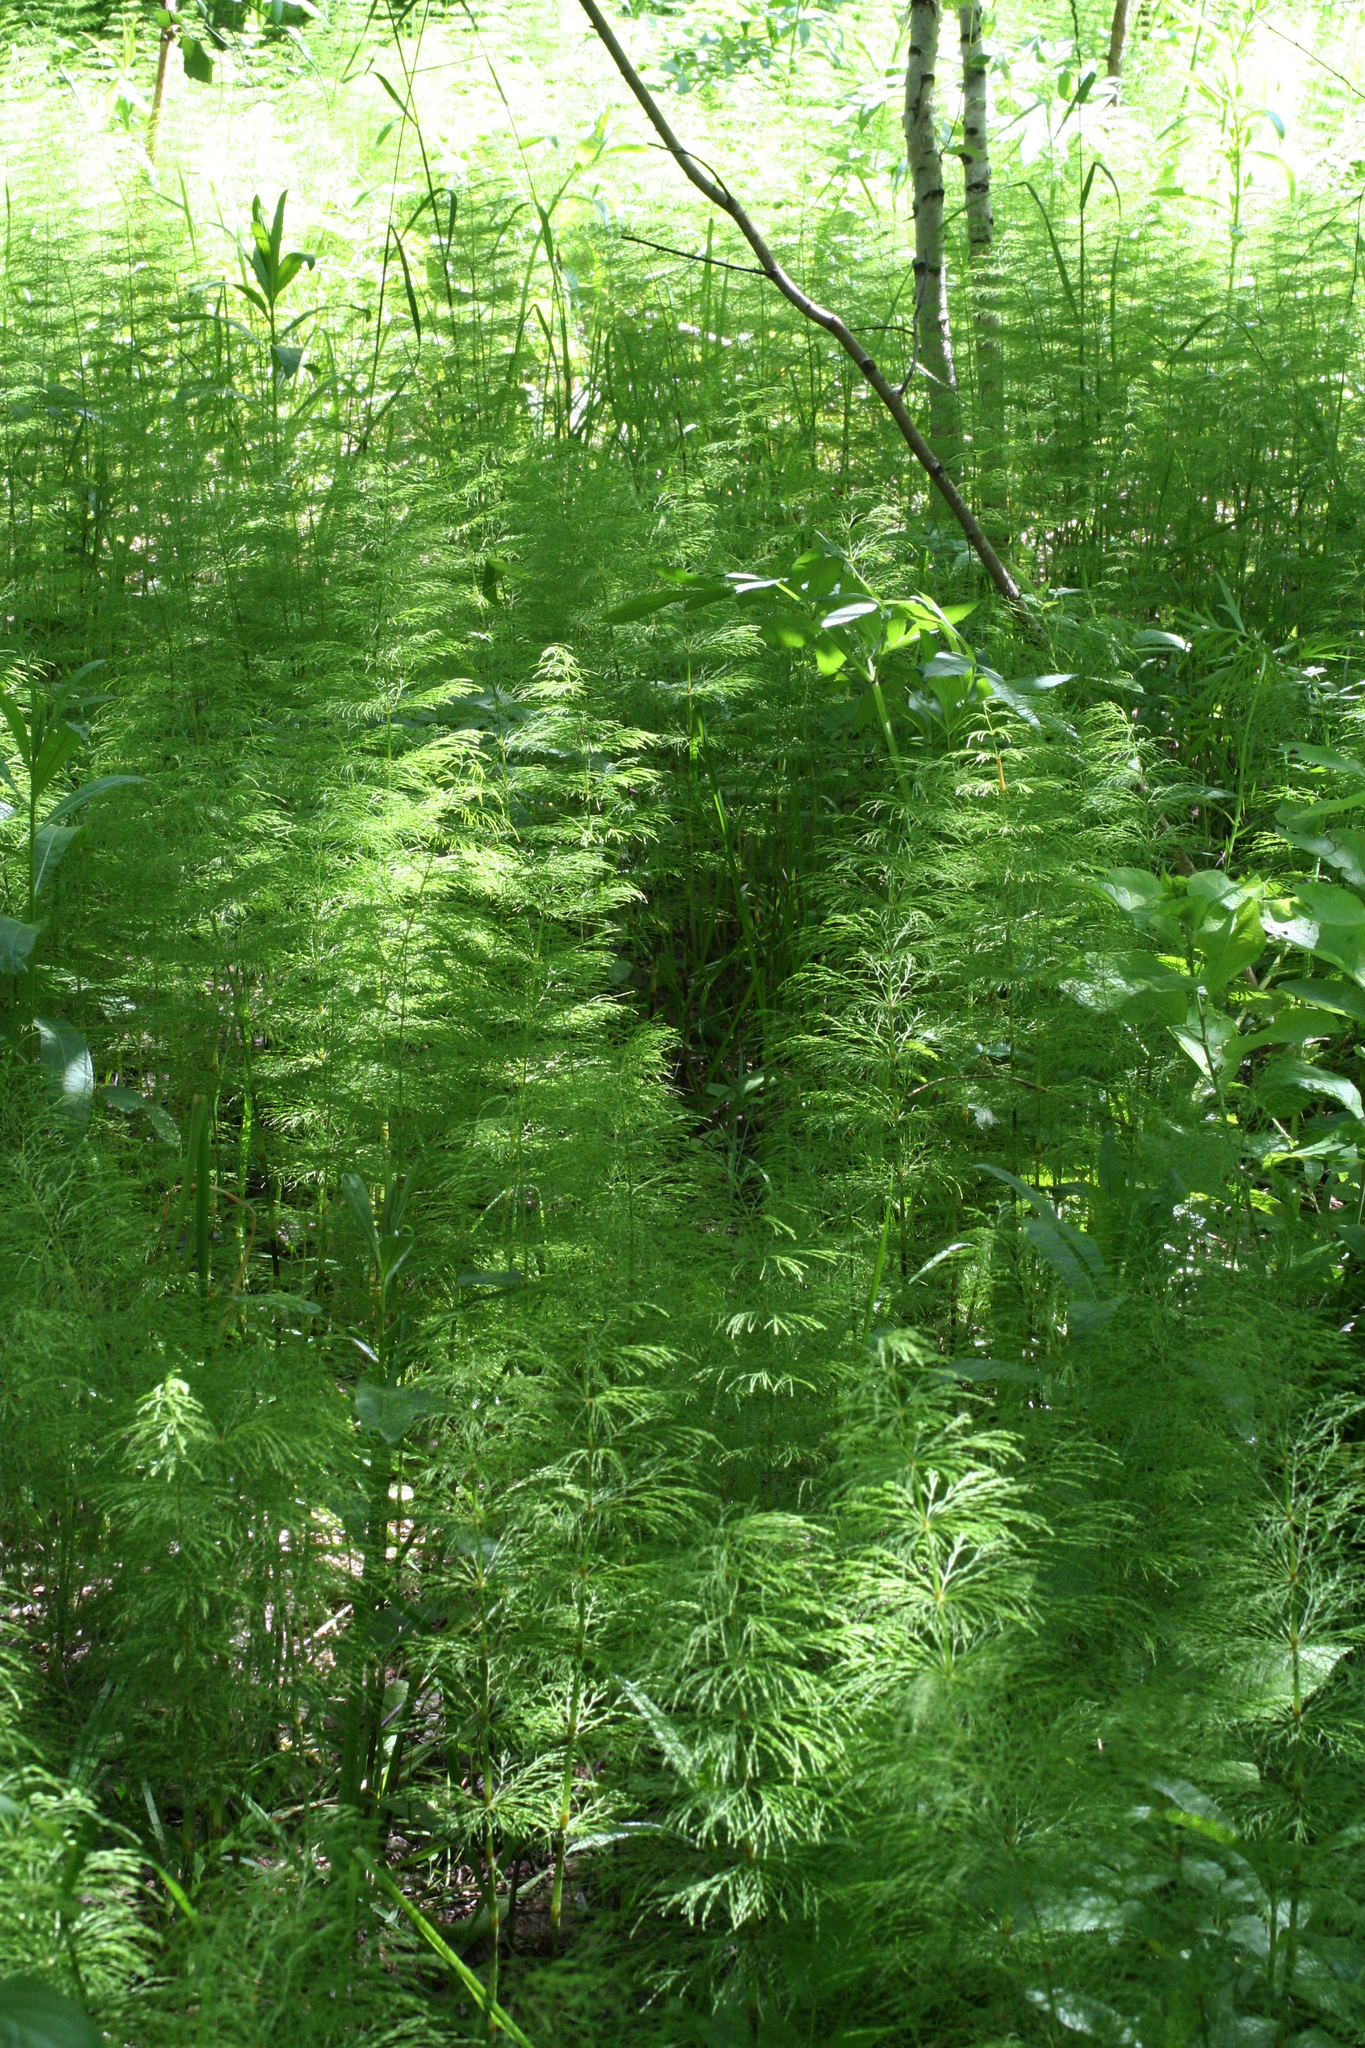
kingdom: Plantae
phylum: Tracheophyta
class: Polypodiopsida
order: Equisetales
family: Equisetaceae
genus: Equisetum
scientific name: Equisetum sylvaticum
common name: Wood horsetail
